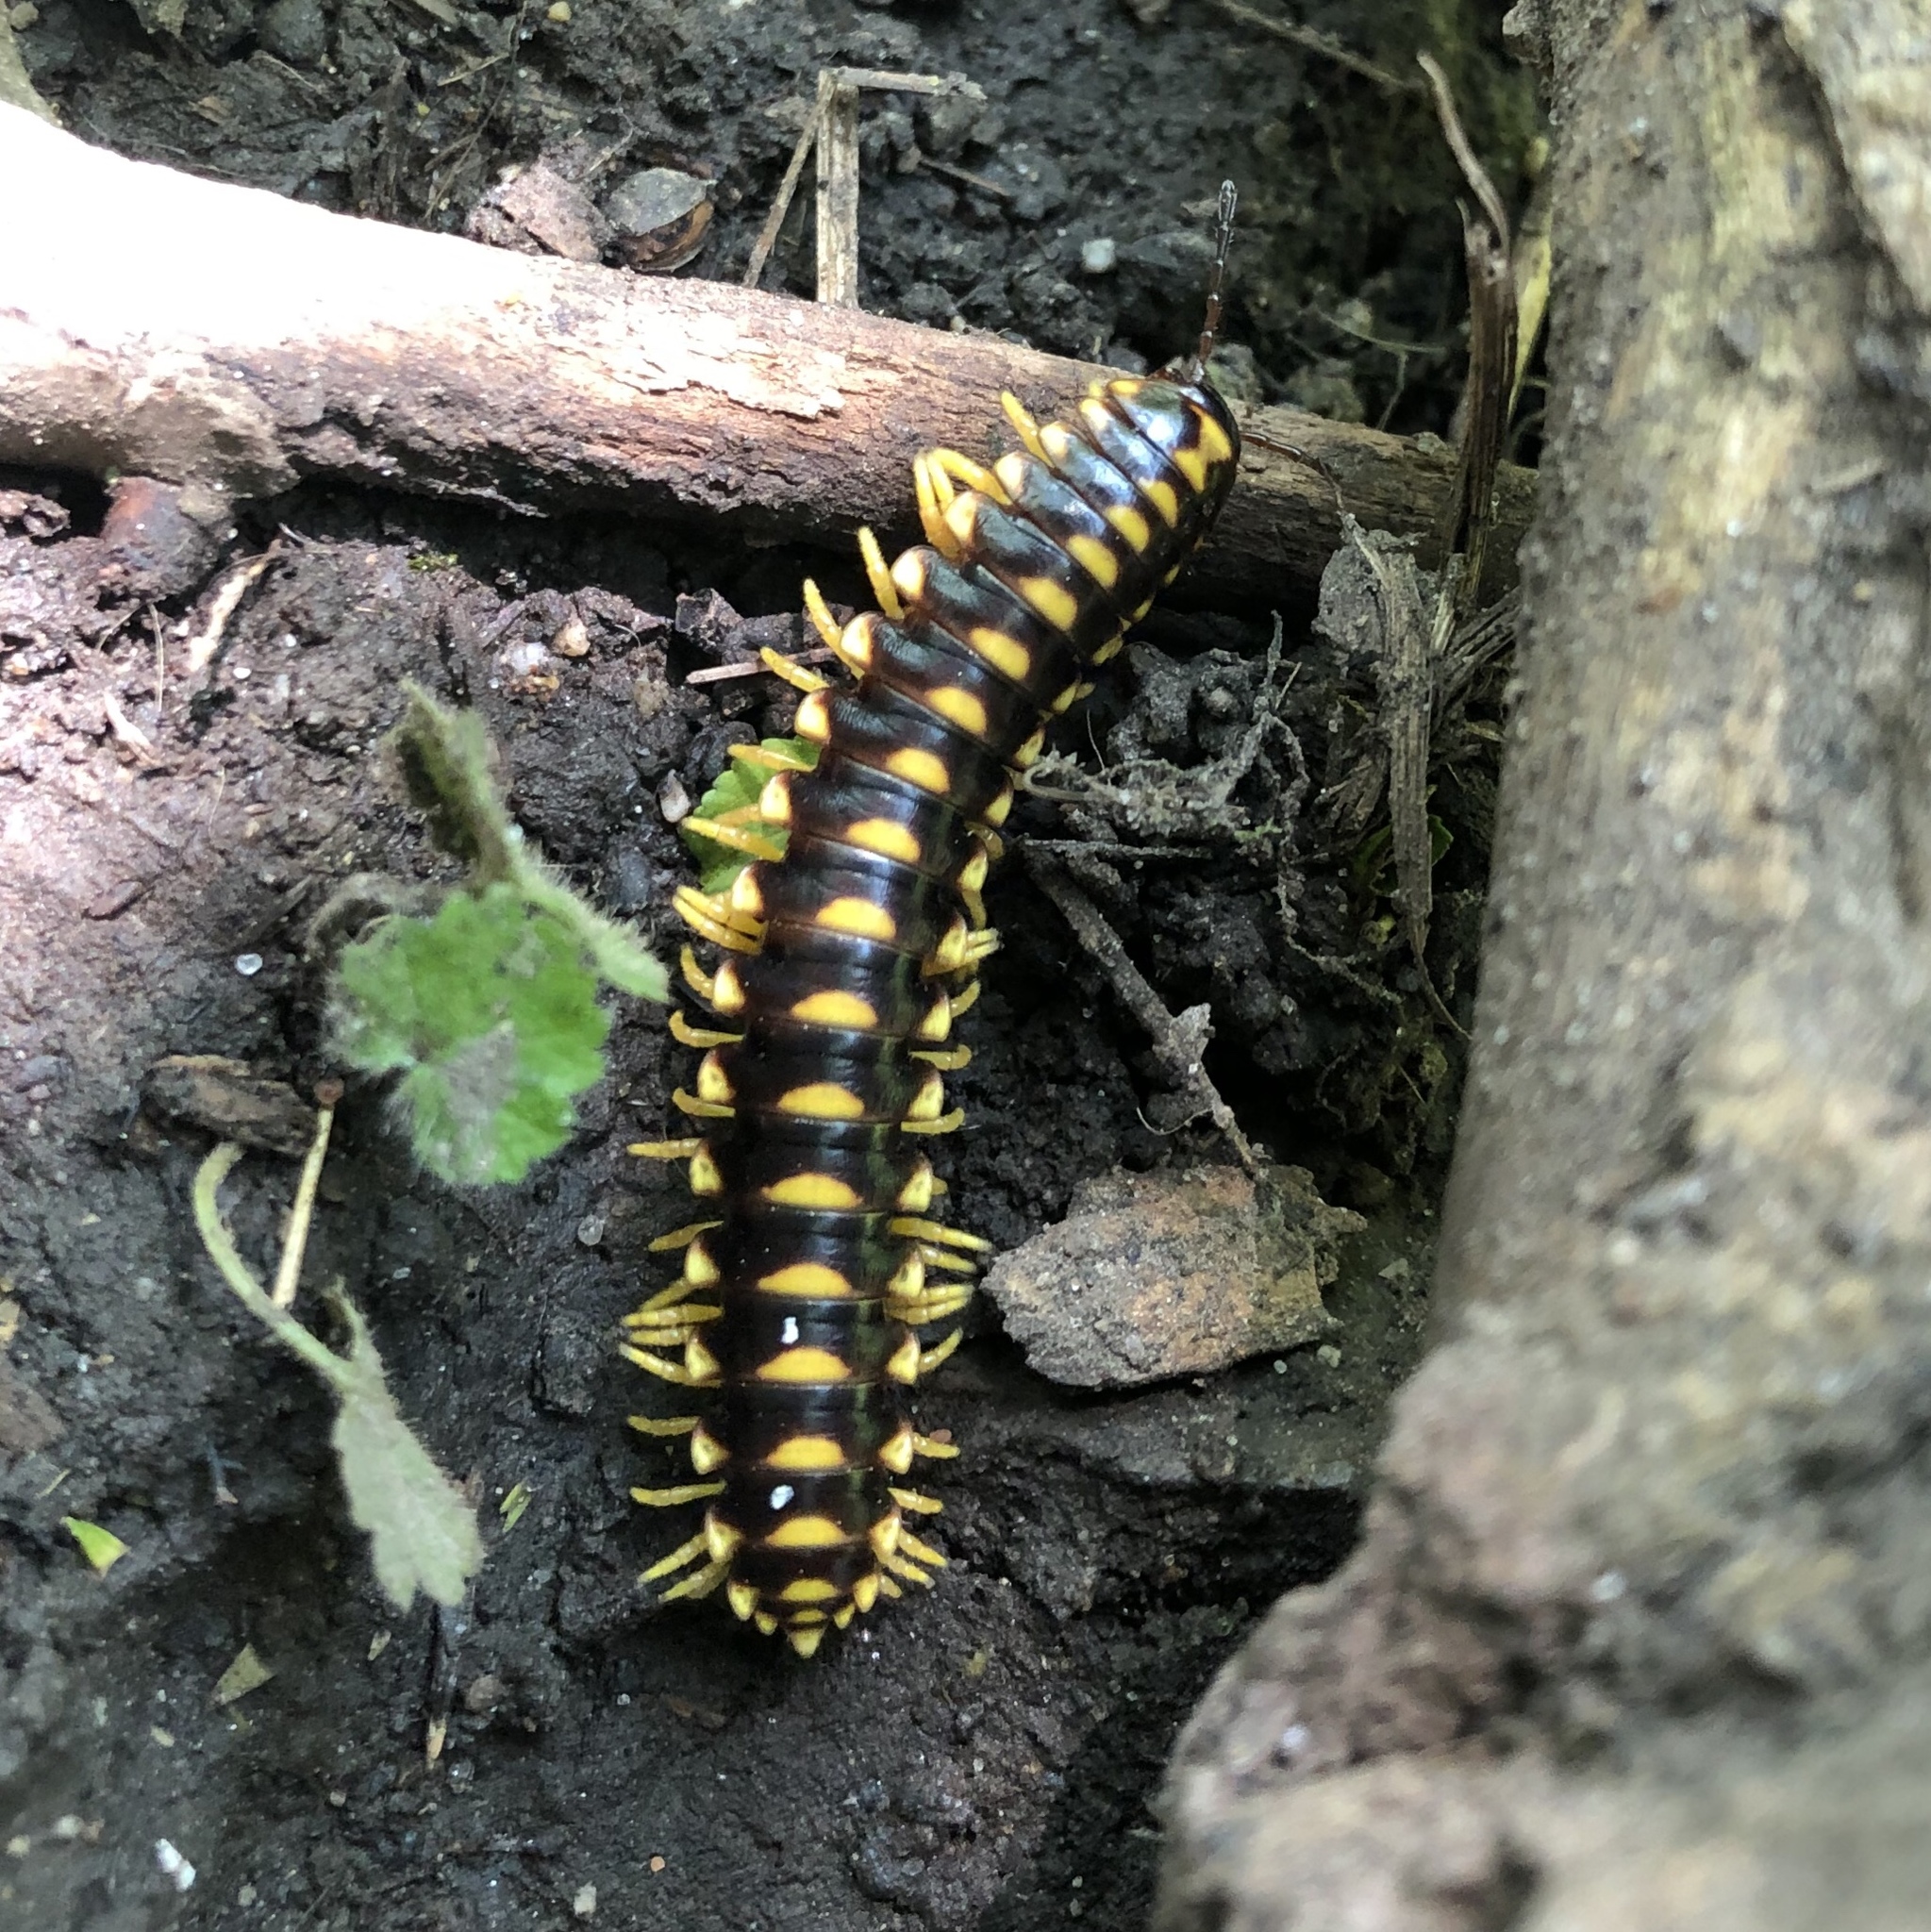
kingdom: Animalia
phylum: Arthropoda
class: Diplopoda
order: Polydesmida
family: Xystodesmidae
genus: Rudiloria
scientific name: Rudiloria trimaculata
